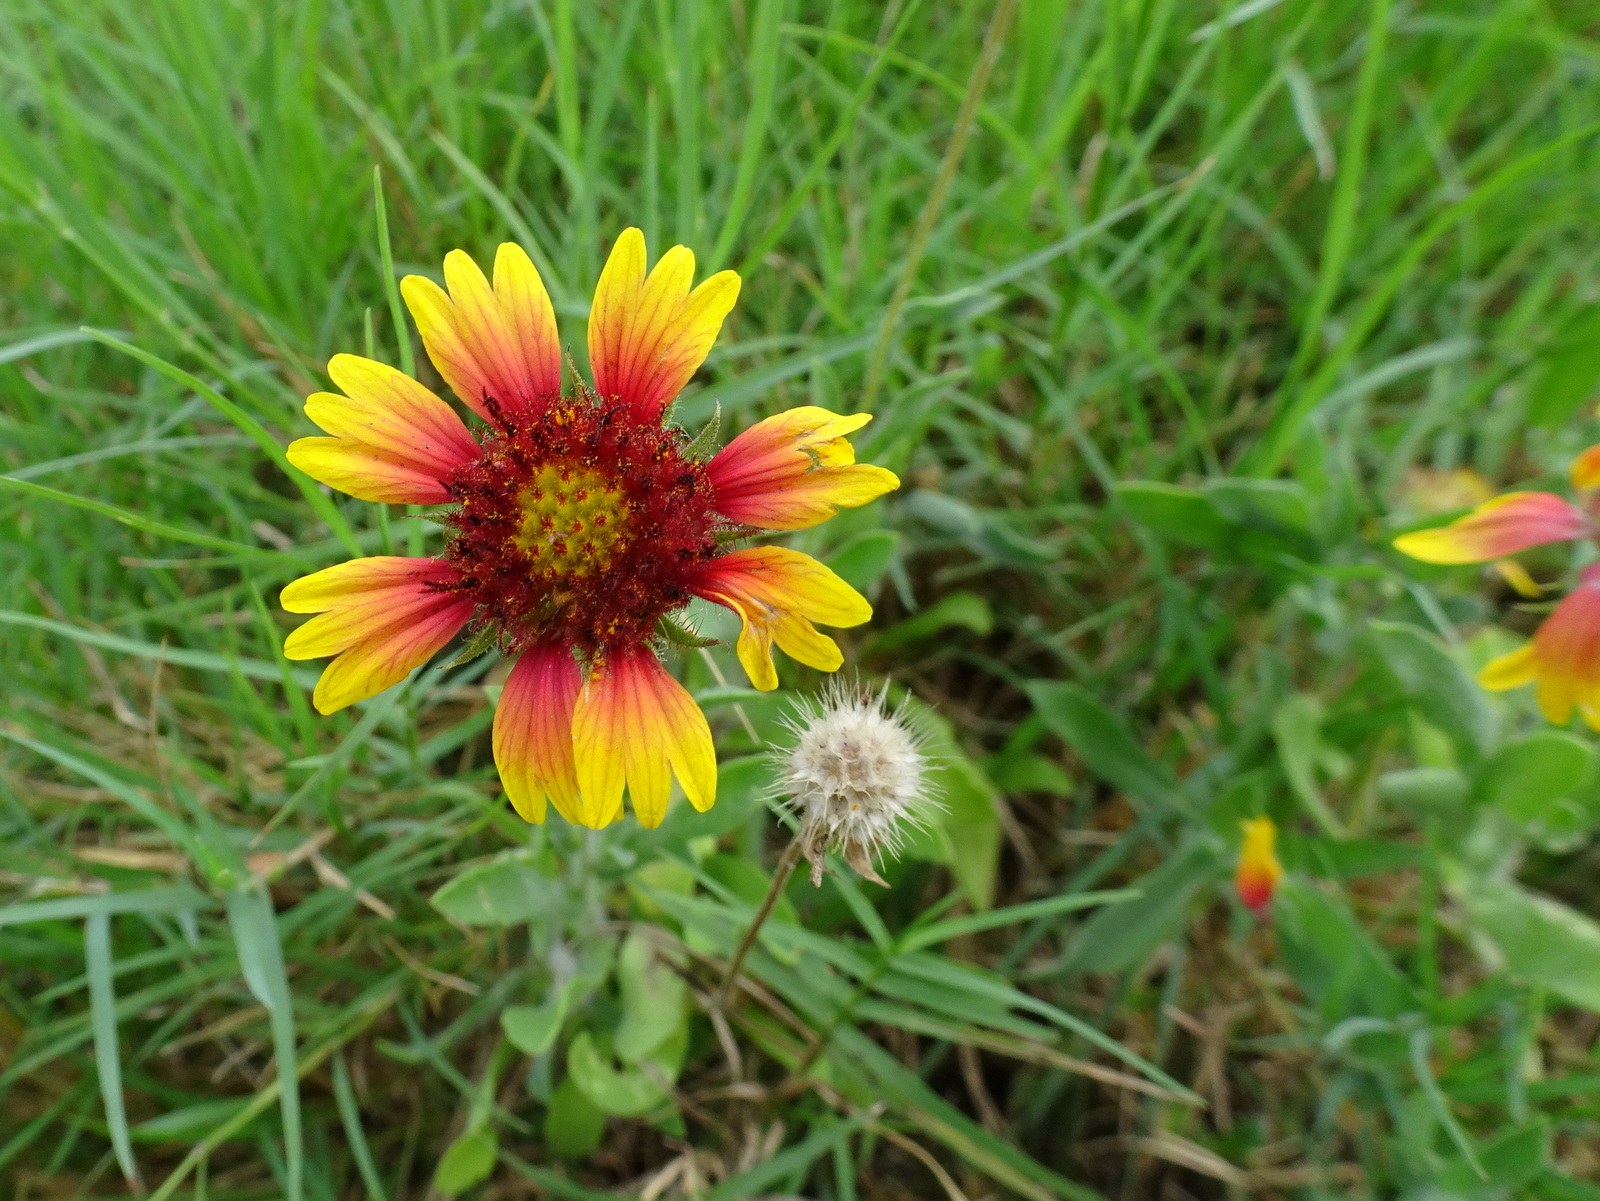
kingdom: Plantae
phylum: Tracheophyta
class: Magnoliopsida
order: Asterales
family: Asteraceae
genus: Gaillardia
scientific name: Gaillardia pulchella
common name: Firewheel
